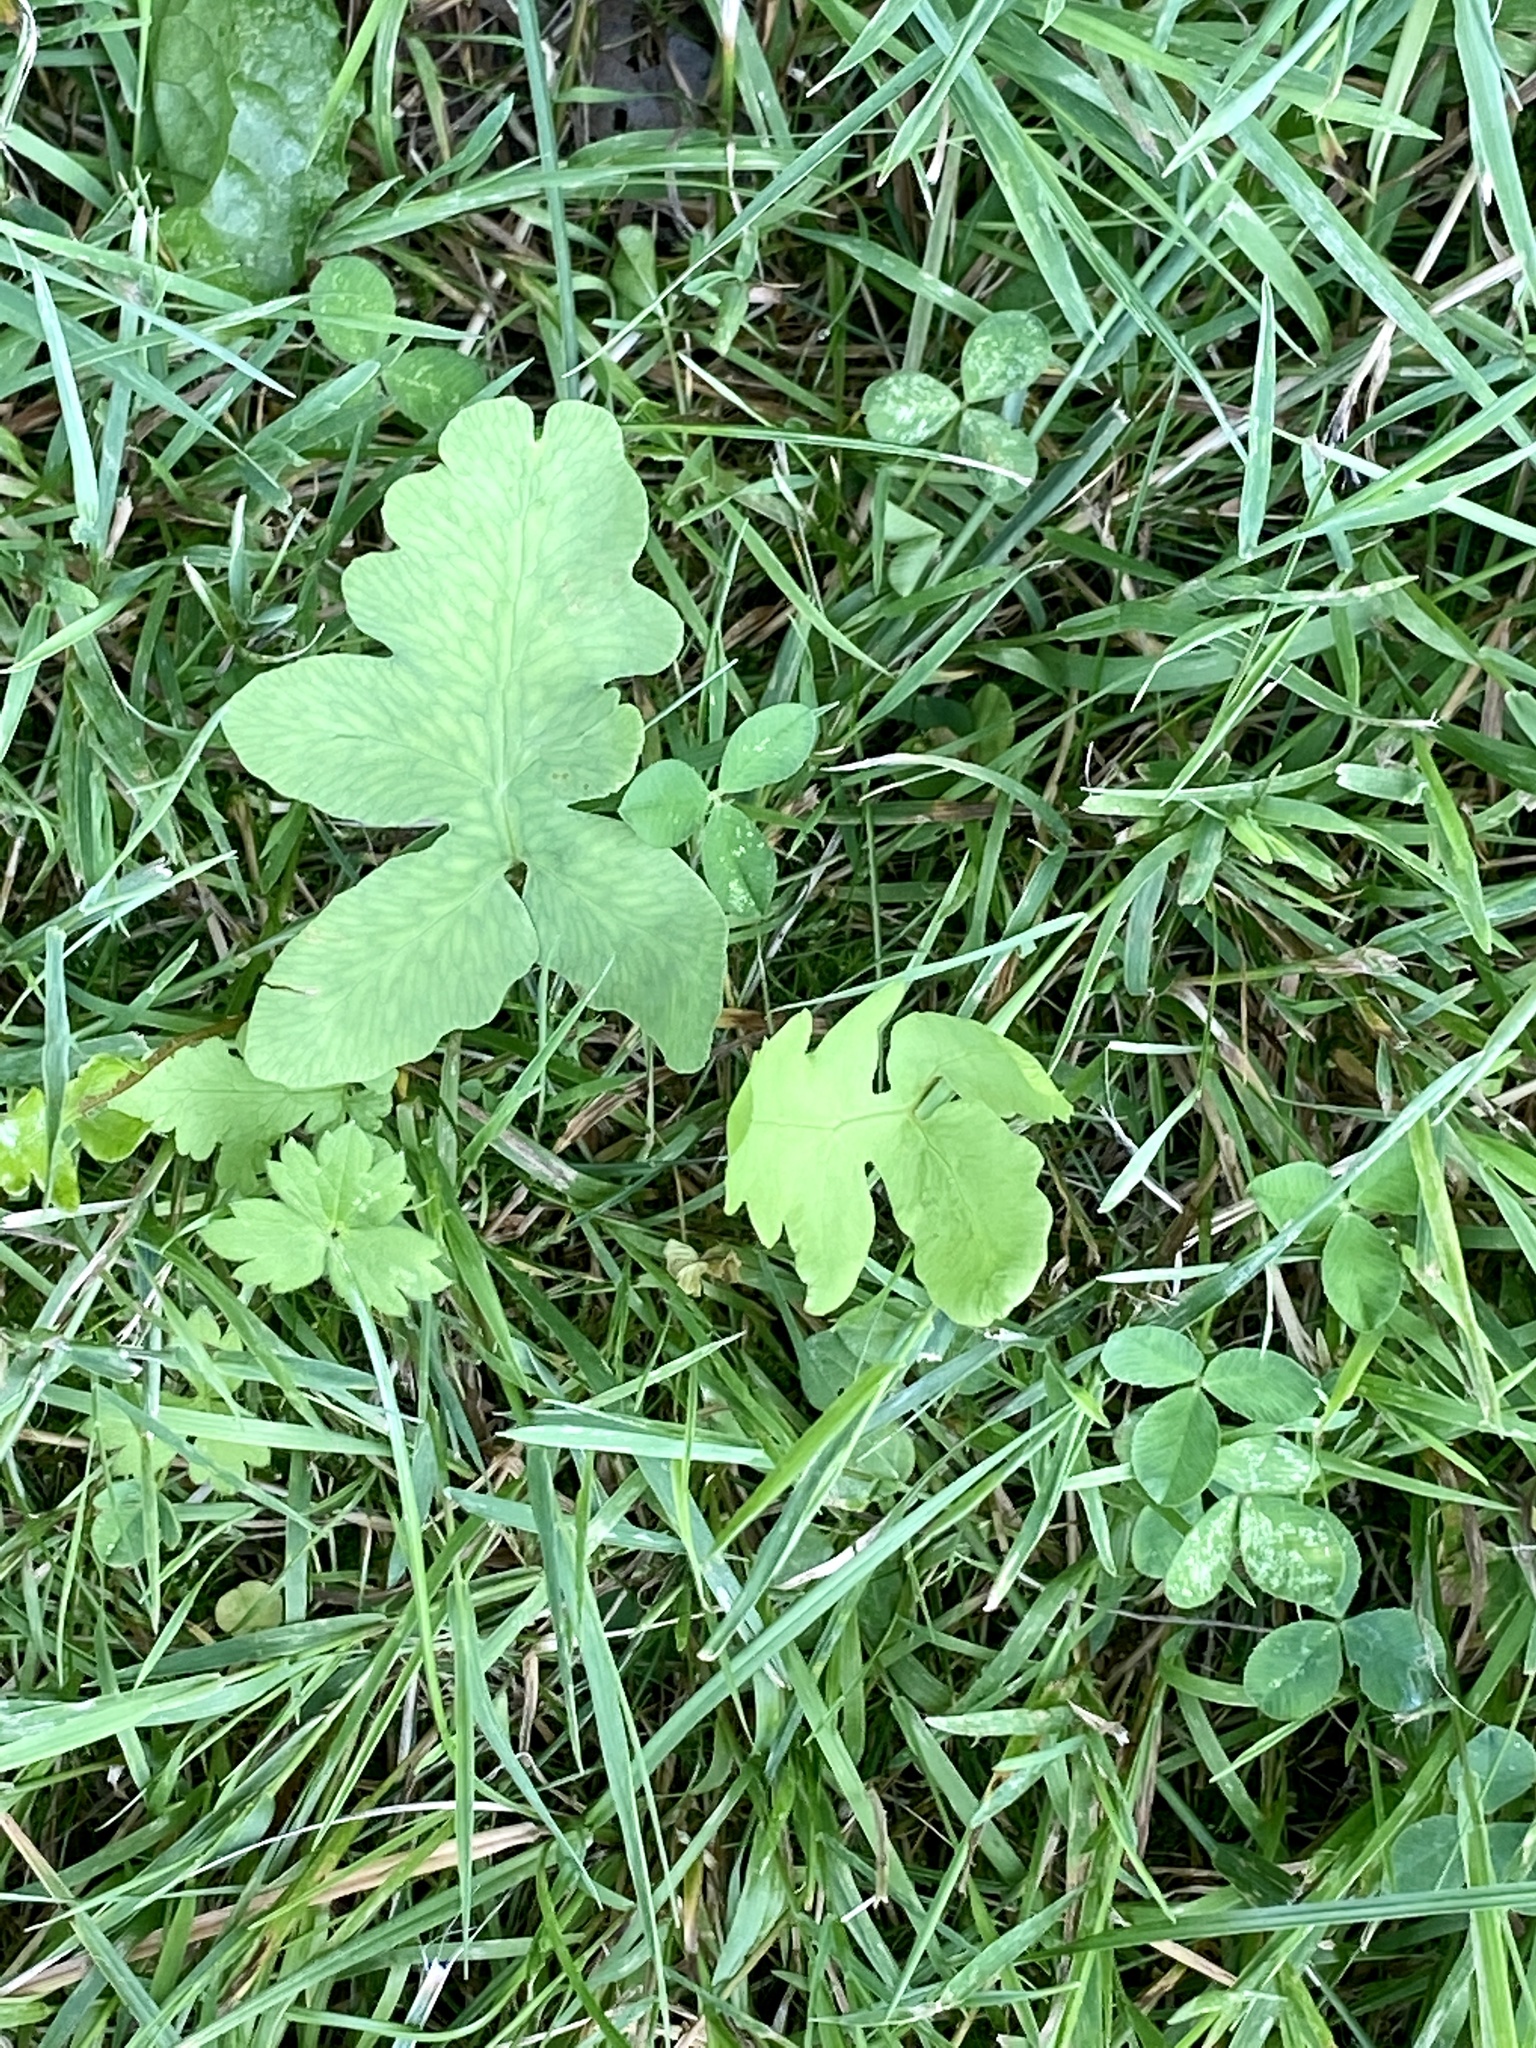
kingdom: Plantae
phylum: Tracheophyta
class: Polypodiopsida
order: Polypodiales
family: Onocleaceae
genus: Onoclea
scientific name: Onoclea sensibilis
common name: Sensitive fern
